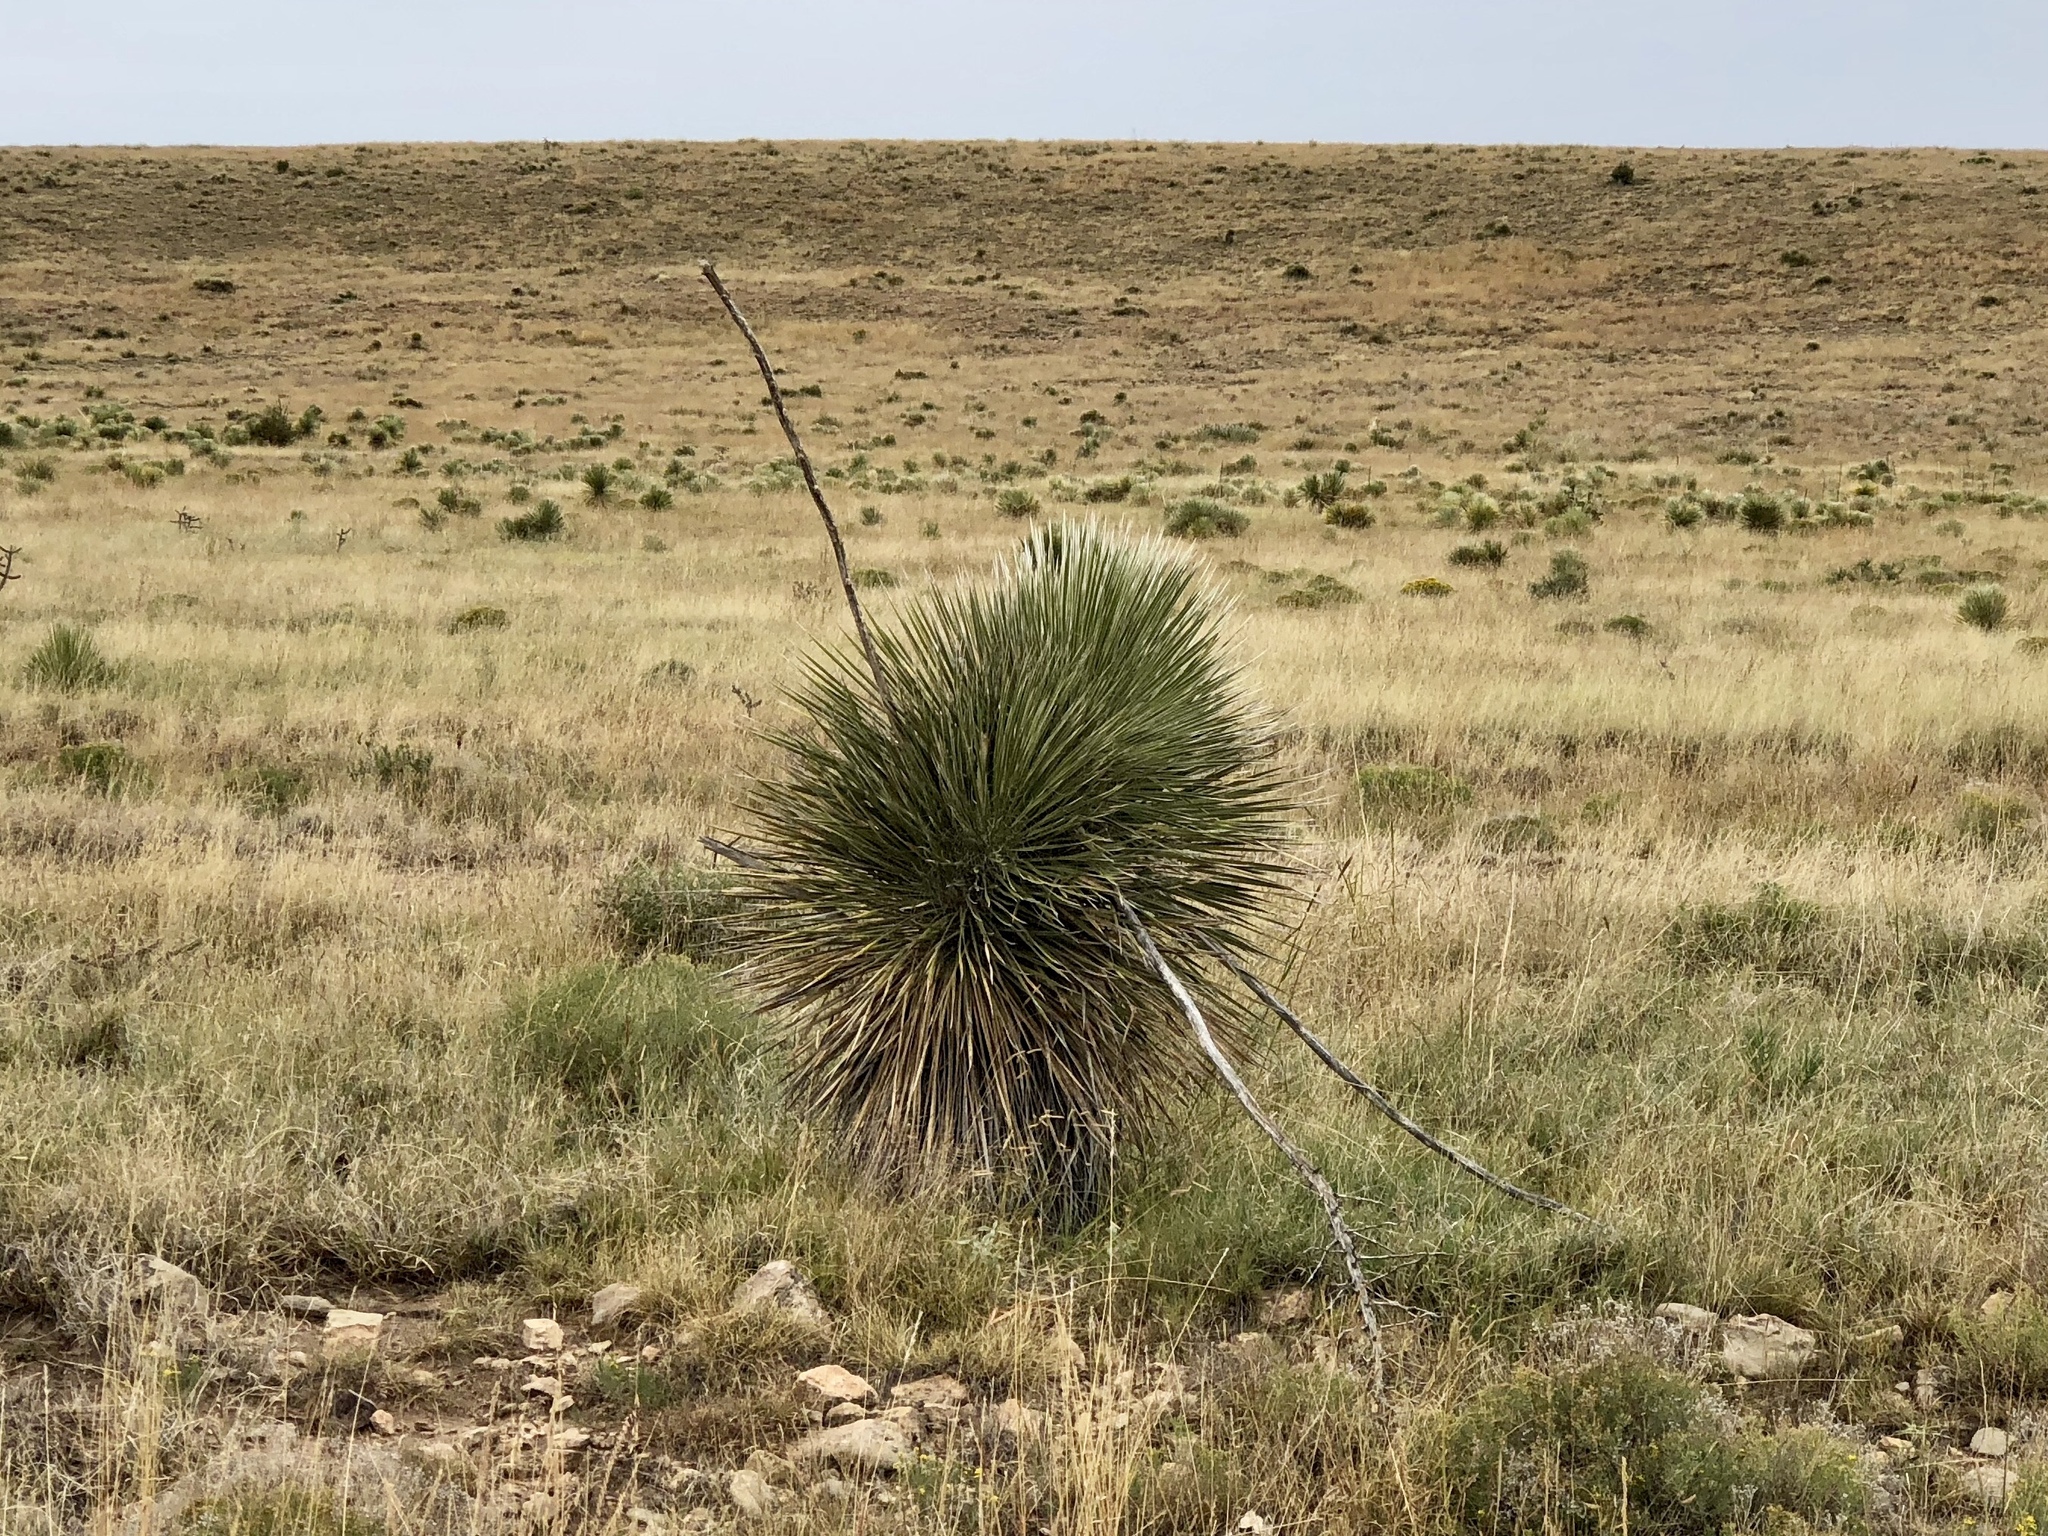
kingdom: Plantae
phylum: Tracheophyta
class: Liliopsida
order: Asparagales
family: Asparagaceae
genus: Yucca
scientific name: Yucca elata
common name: Palmella
